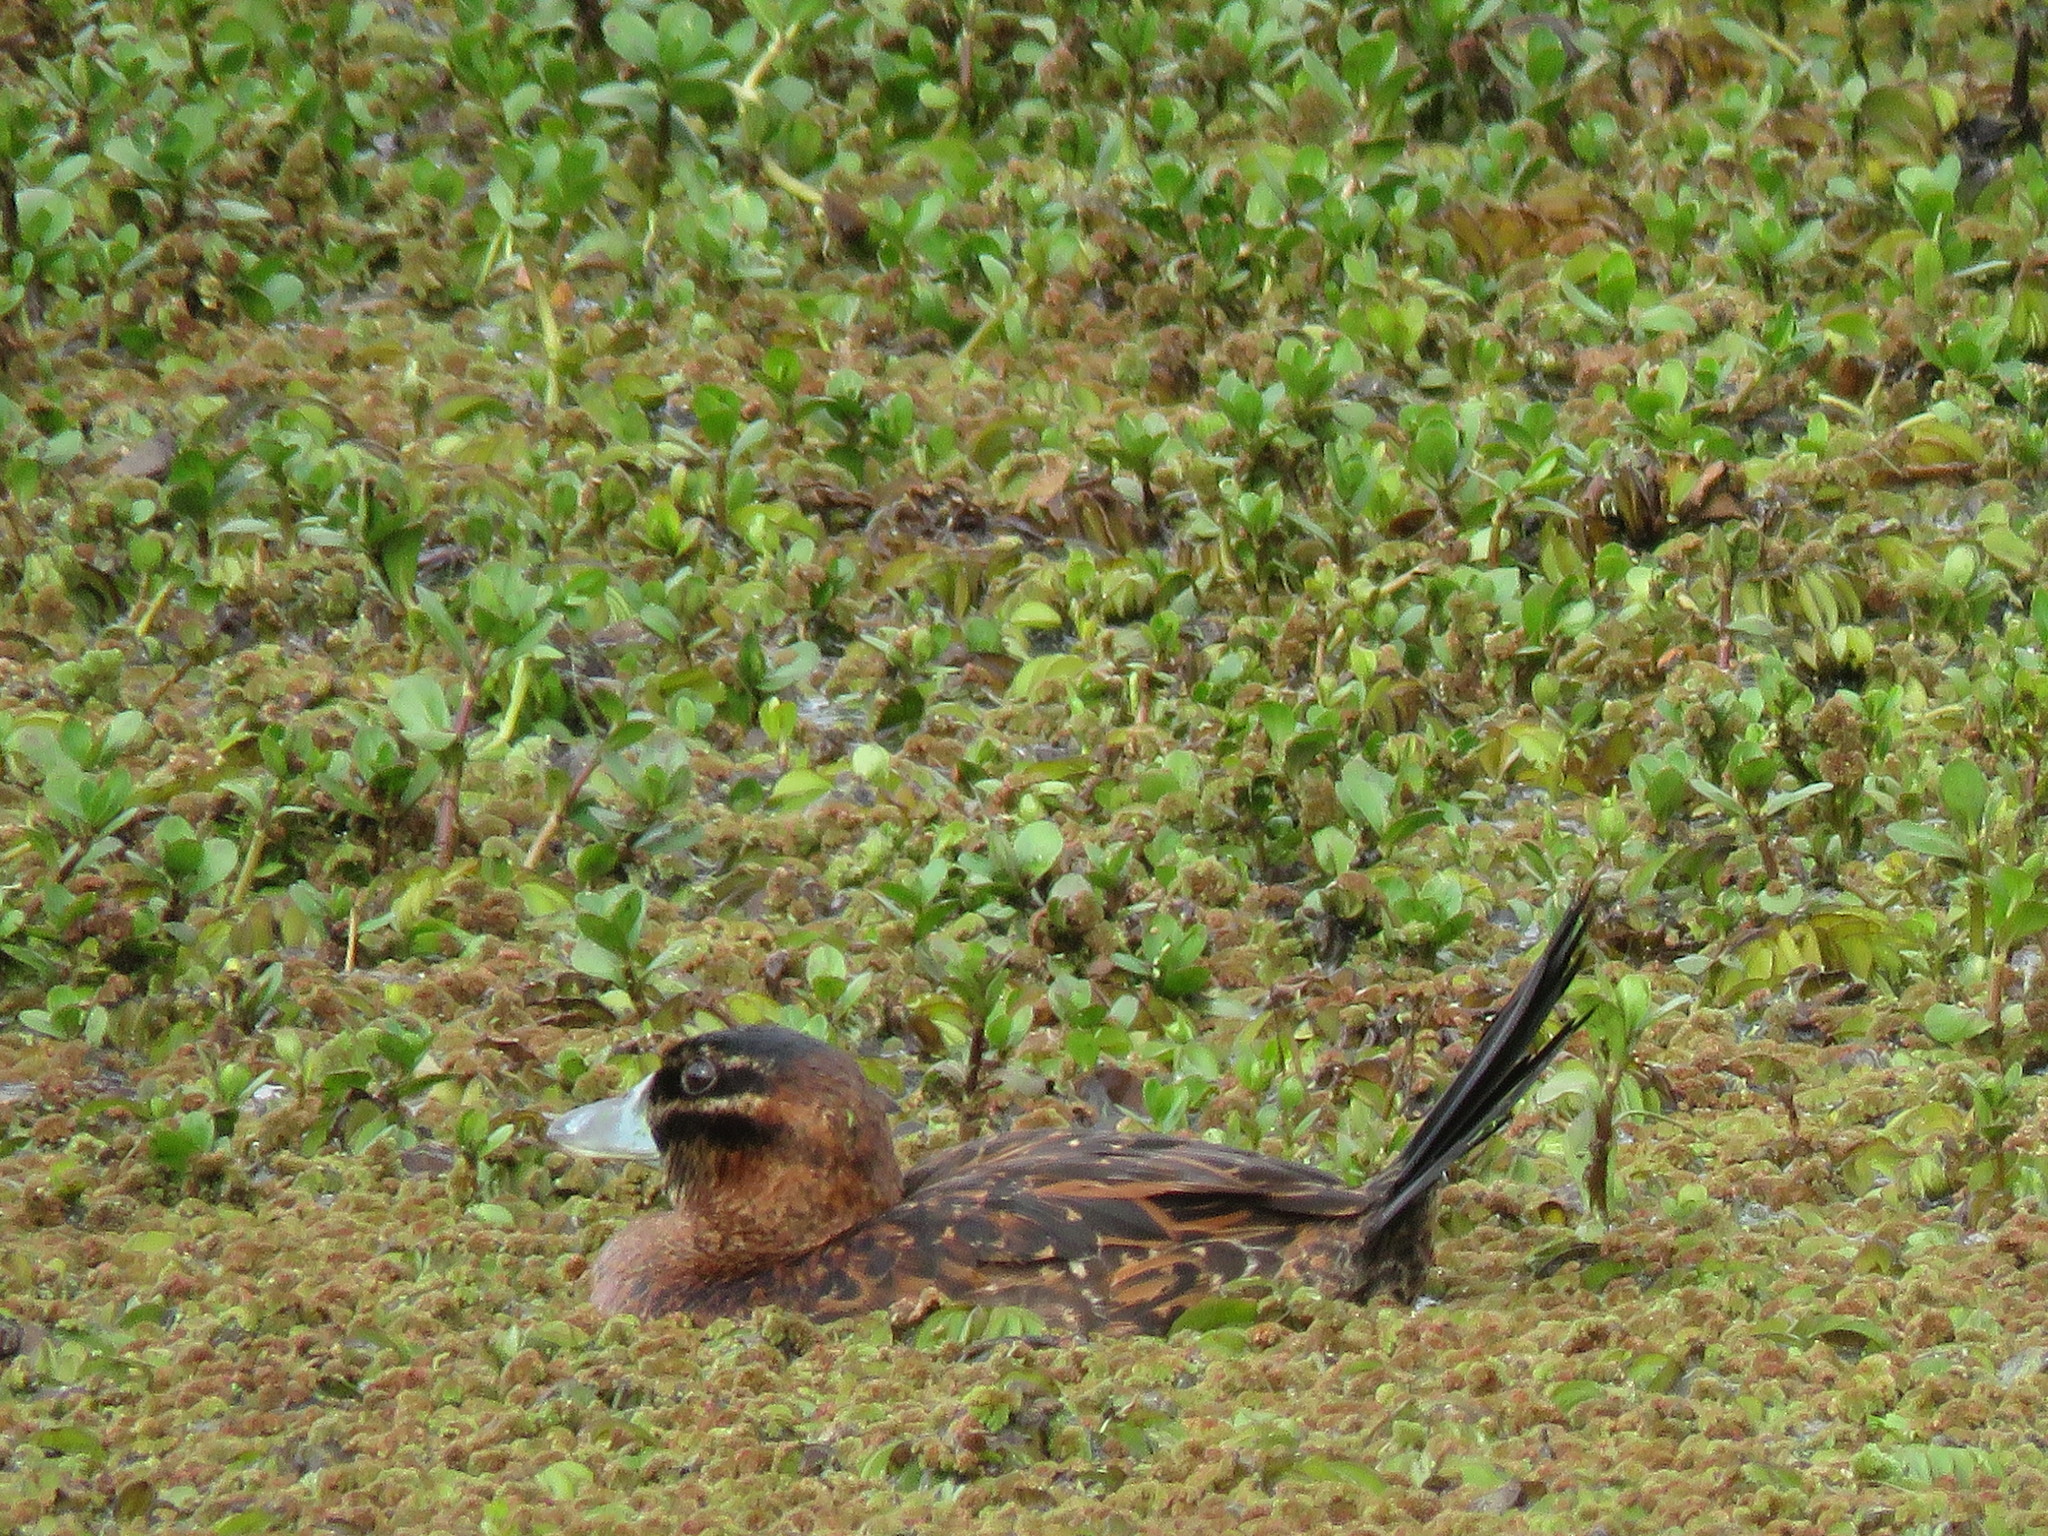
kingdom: Animalia
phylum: Chordata
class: Aves
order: Anseriformes
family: Anatidae
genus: Nomonyx
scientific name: Nomonyx dominicus
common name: Masked duck
